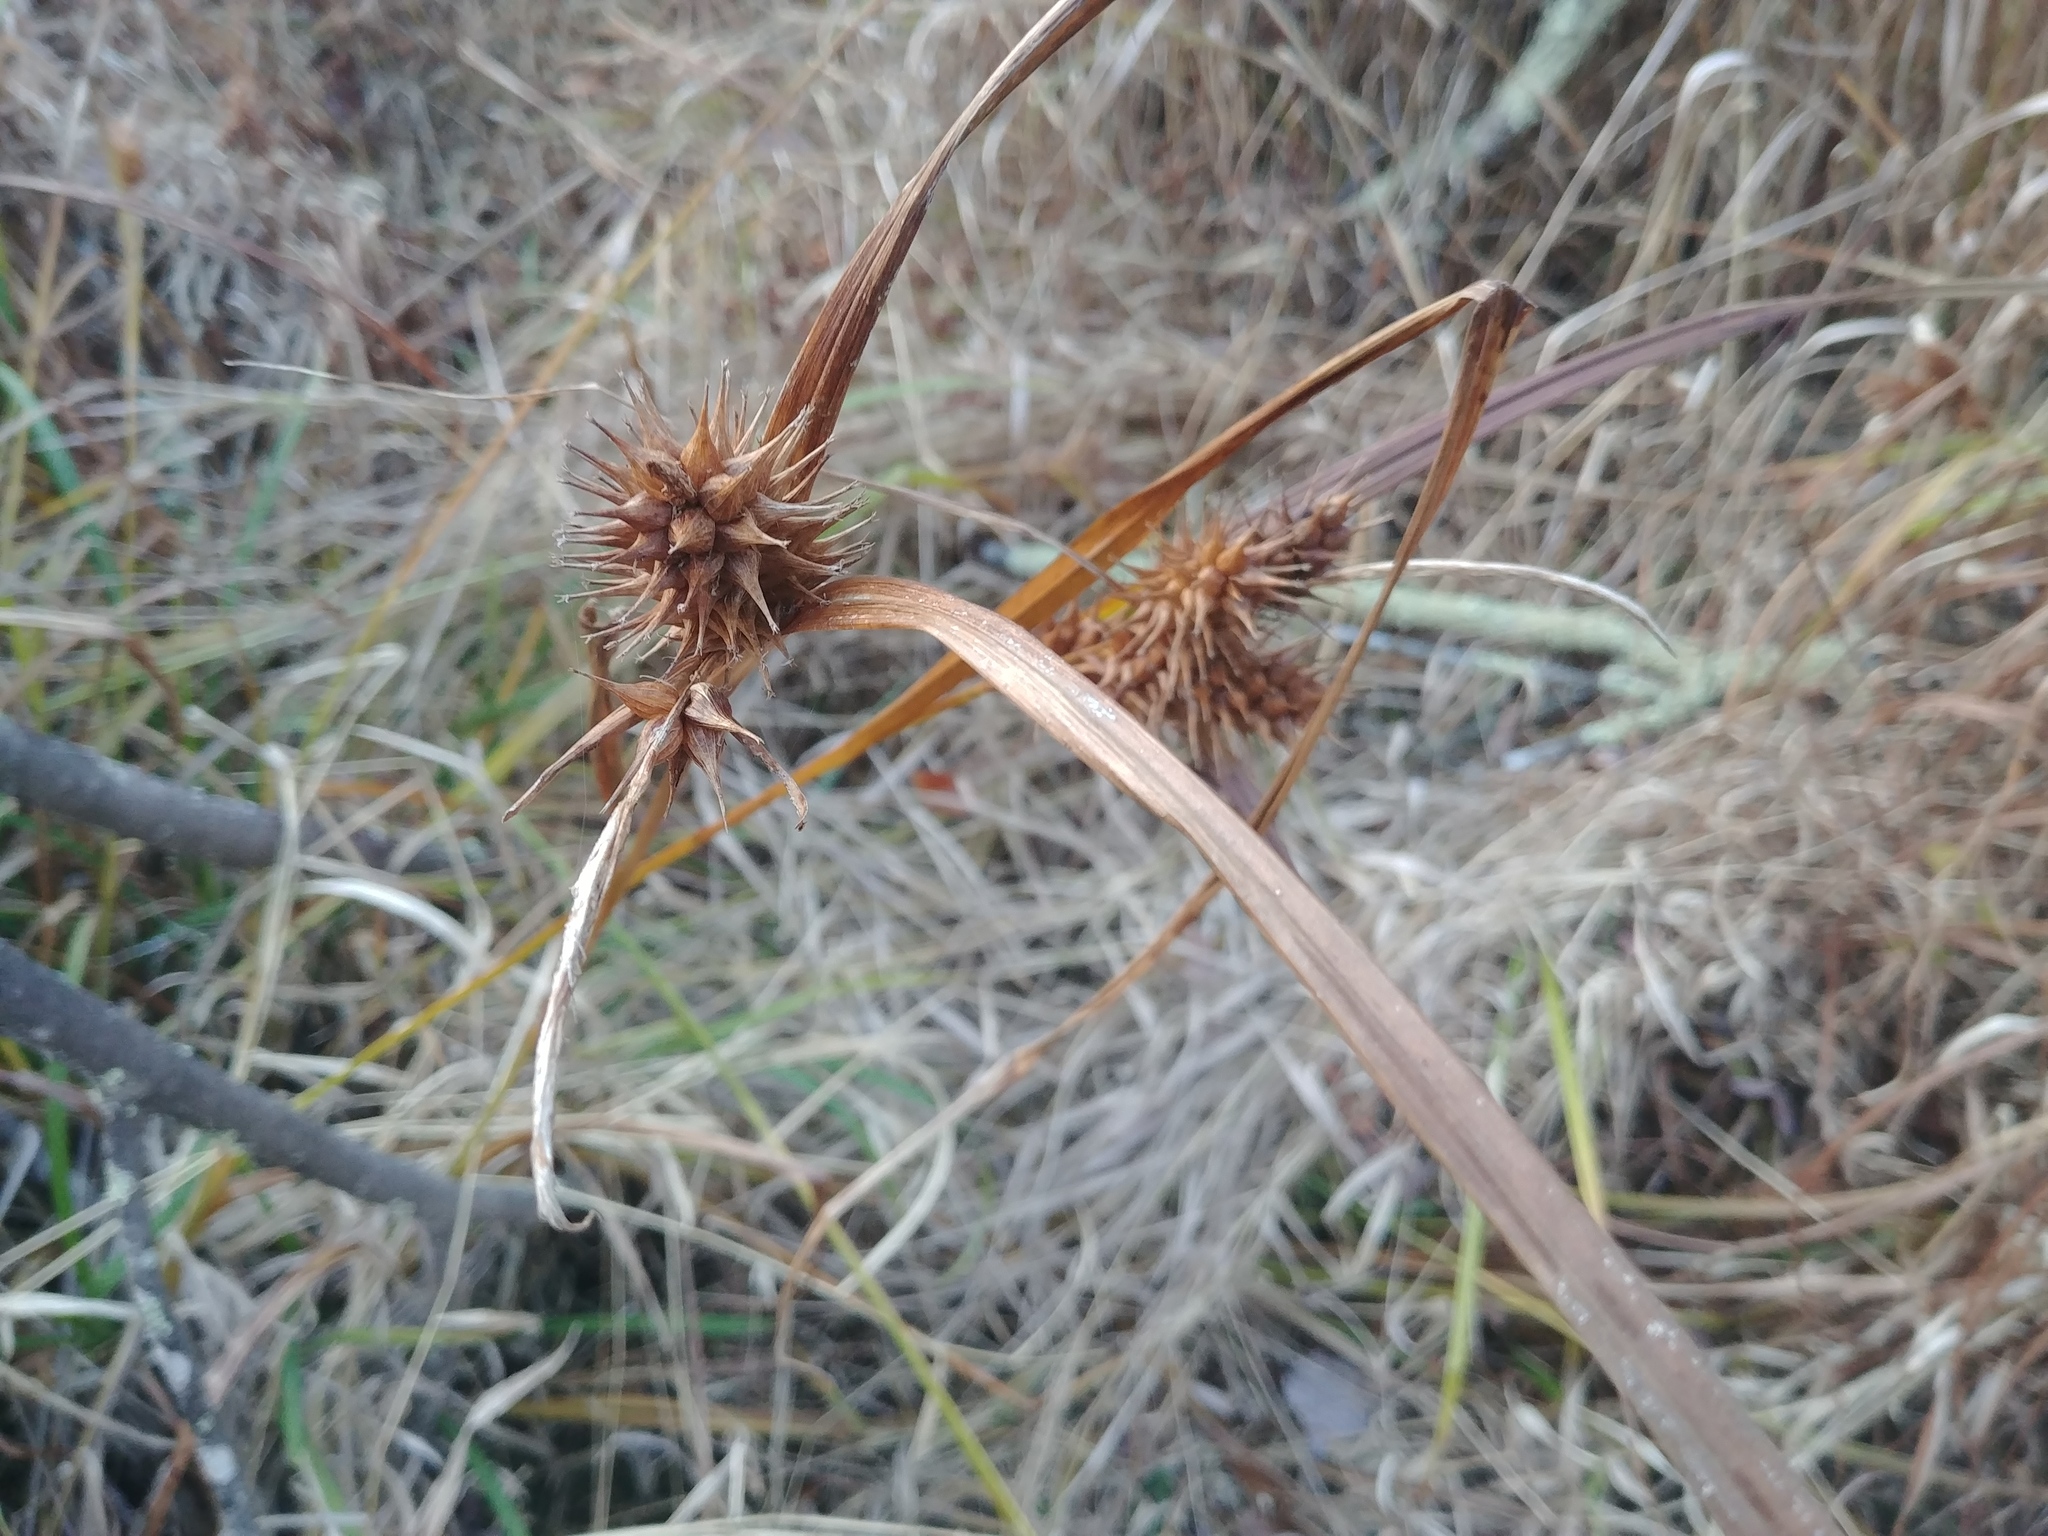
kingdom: Plantae
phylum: Tracheophyta
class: Liliopsida
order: Poales
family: Cyperaceae
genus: Carex
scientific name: Carex lurida
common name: Sallow sedge
